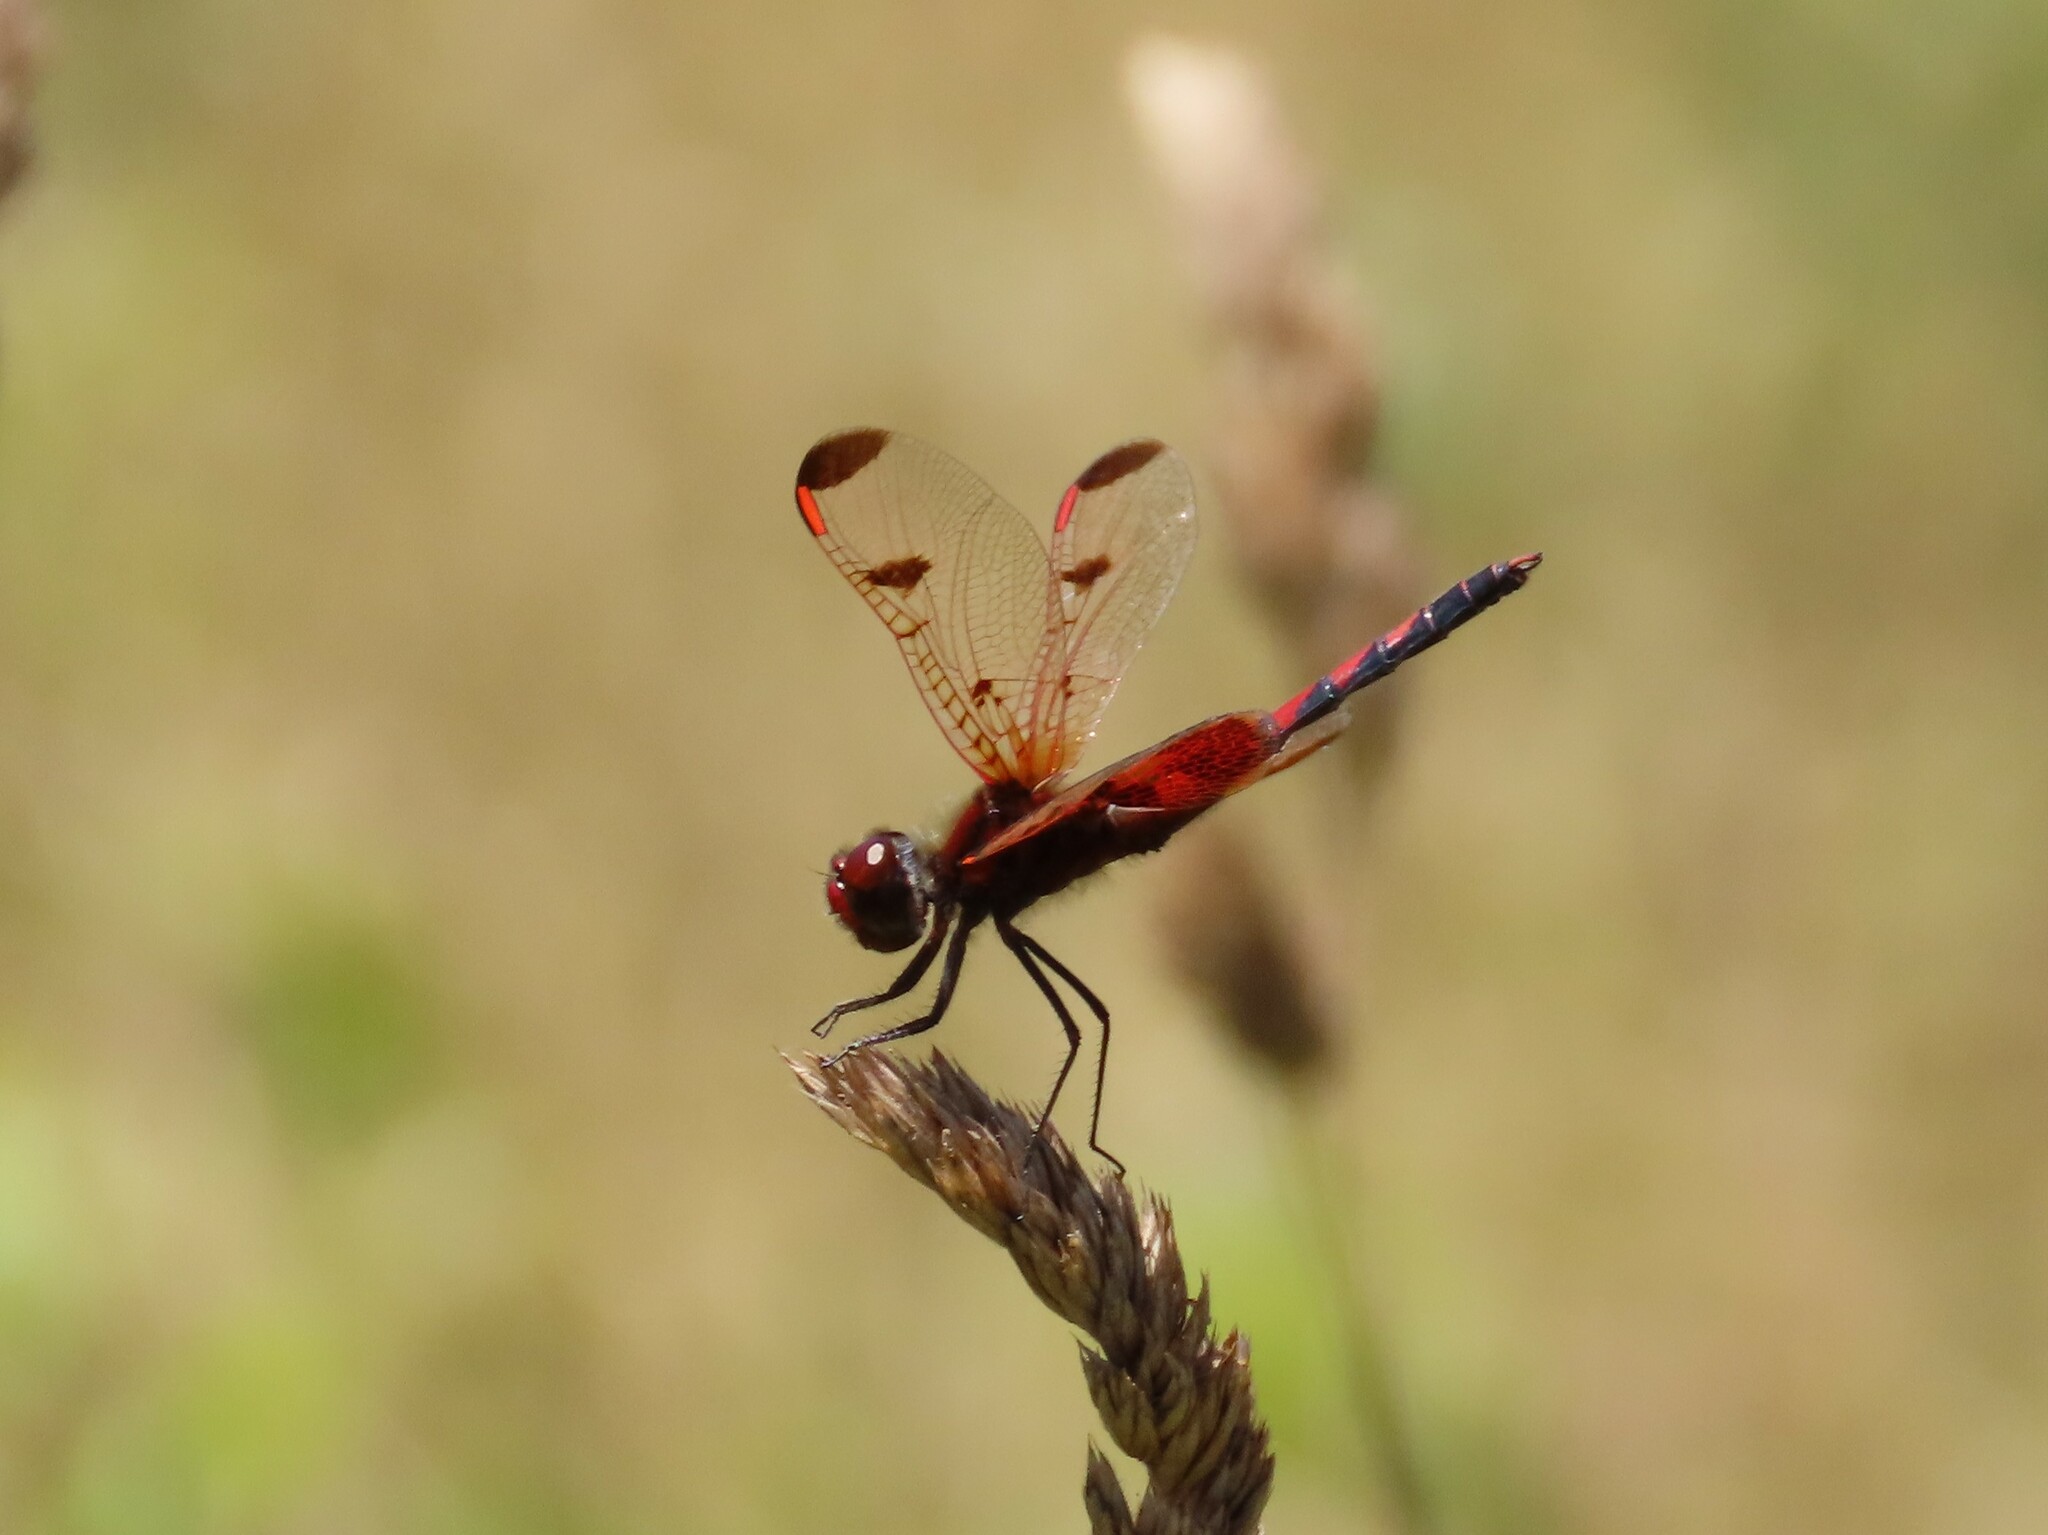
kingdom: Animalia
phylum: Arthropoda
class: Insecta
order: Odonata
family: Libellulidae
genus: Celithemis
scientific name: Celithemis elisa
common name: Calico pennant
